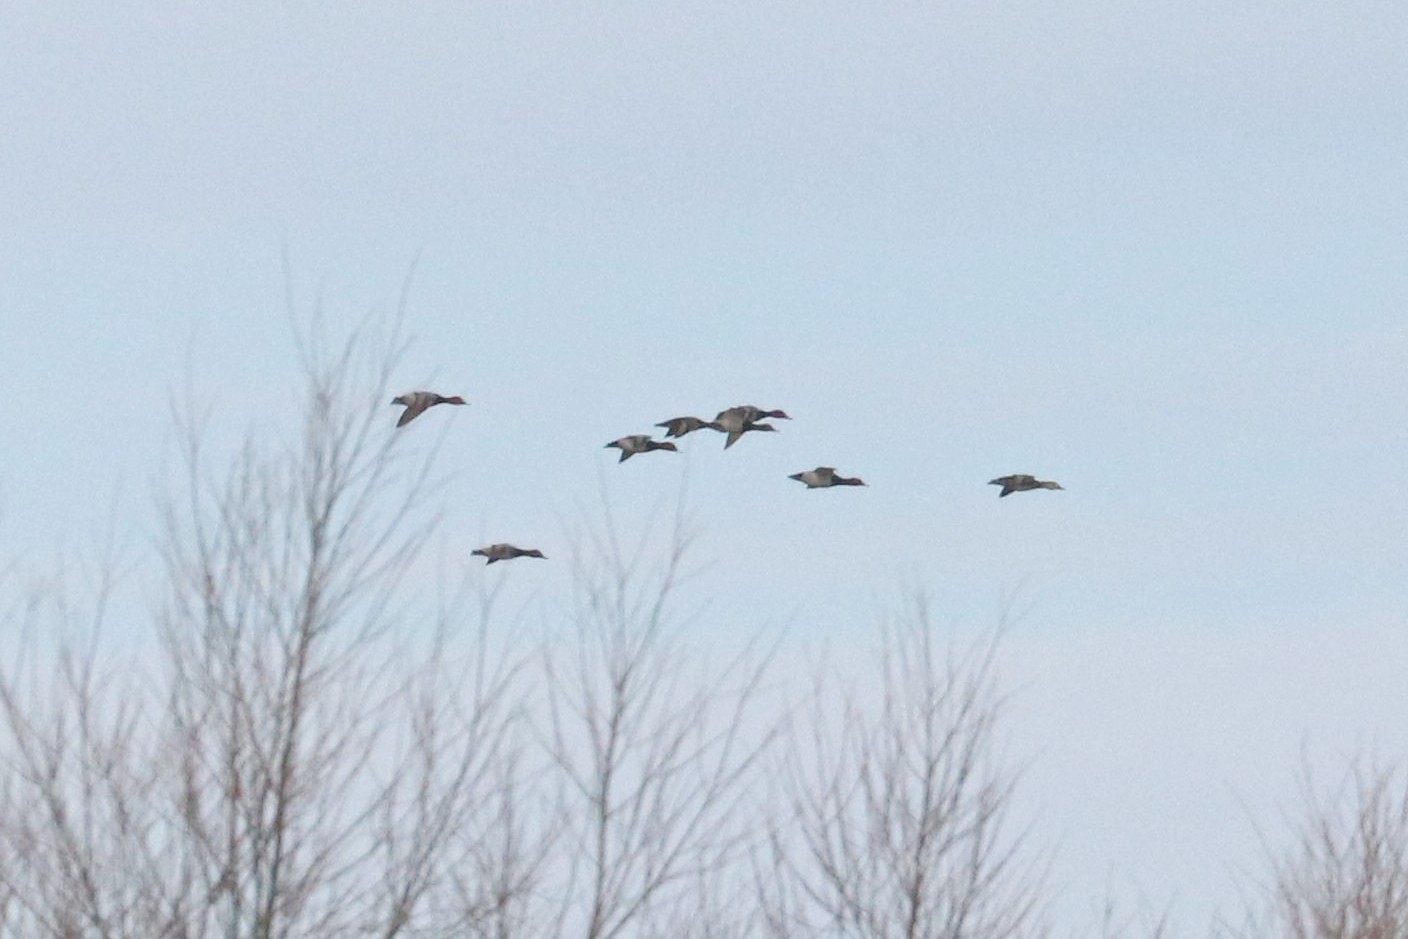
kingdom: Animalia
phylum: Chordata
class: Aves
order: Anseriformes
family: Anatidae
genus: Aythya
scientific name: Aythya ferina
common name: Common pochard
